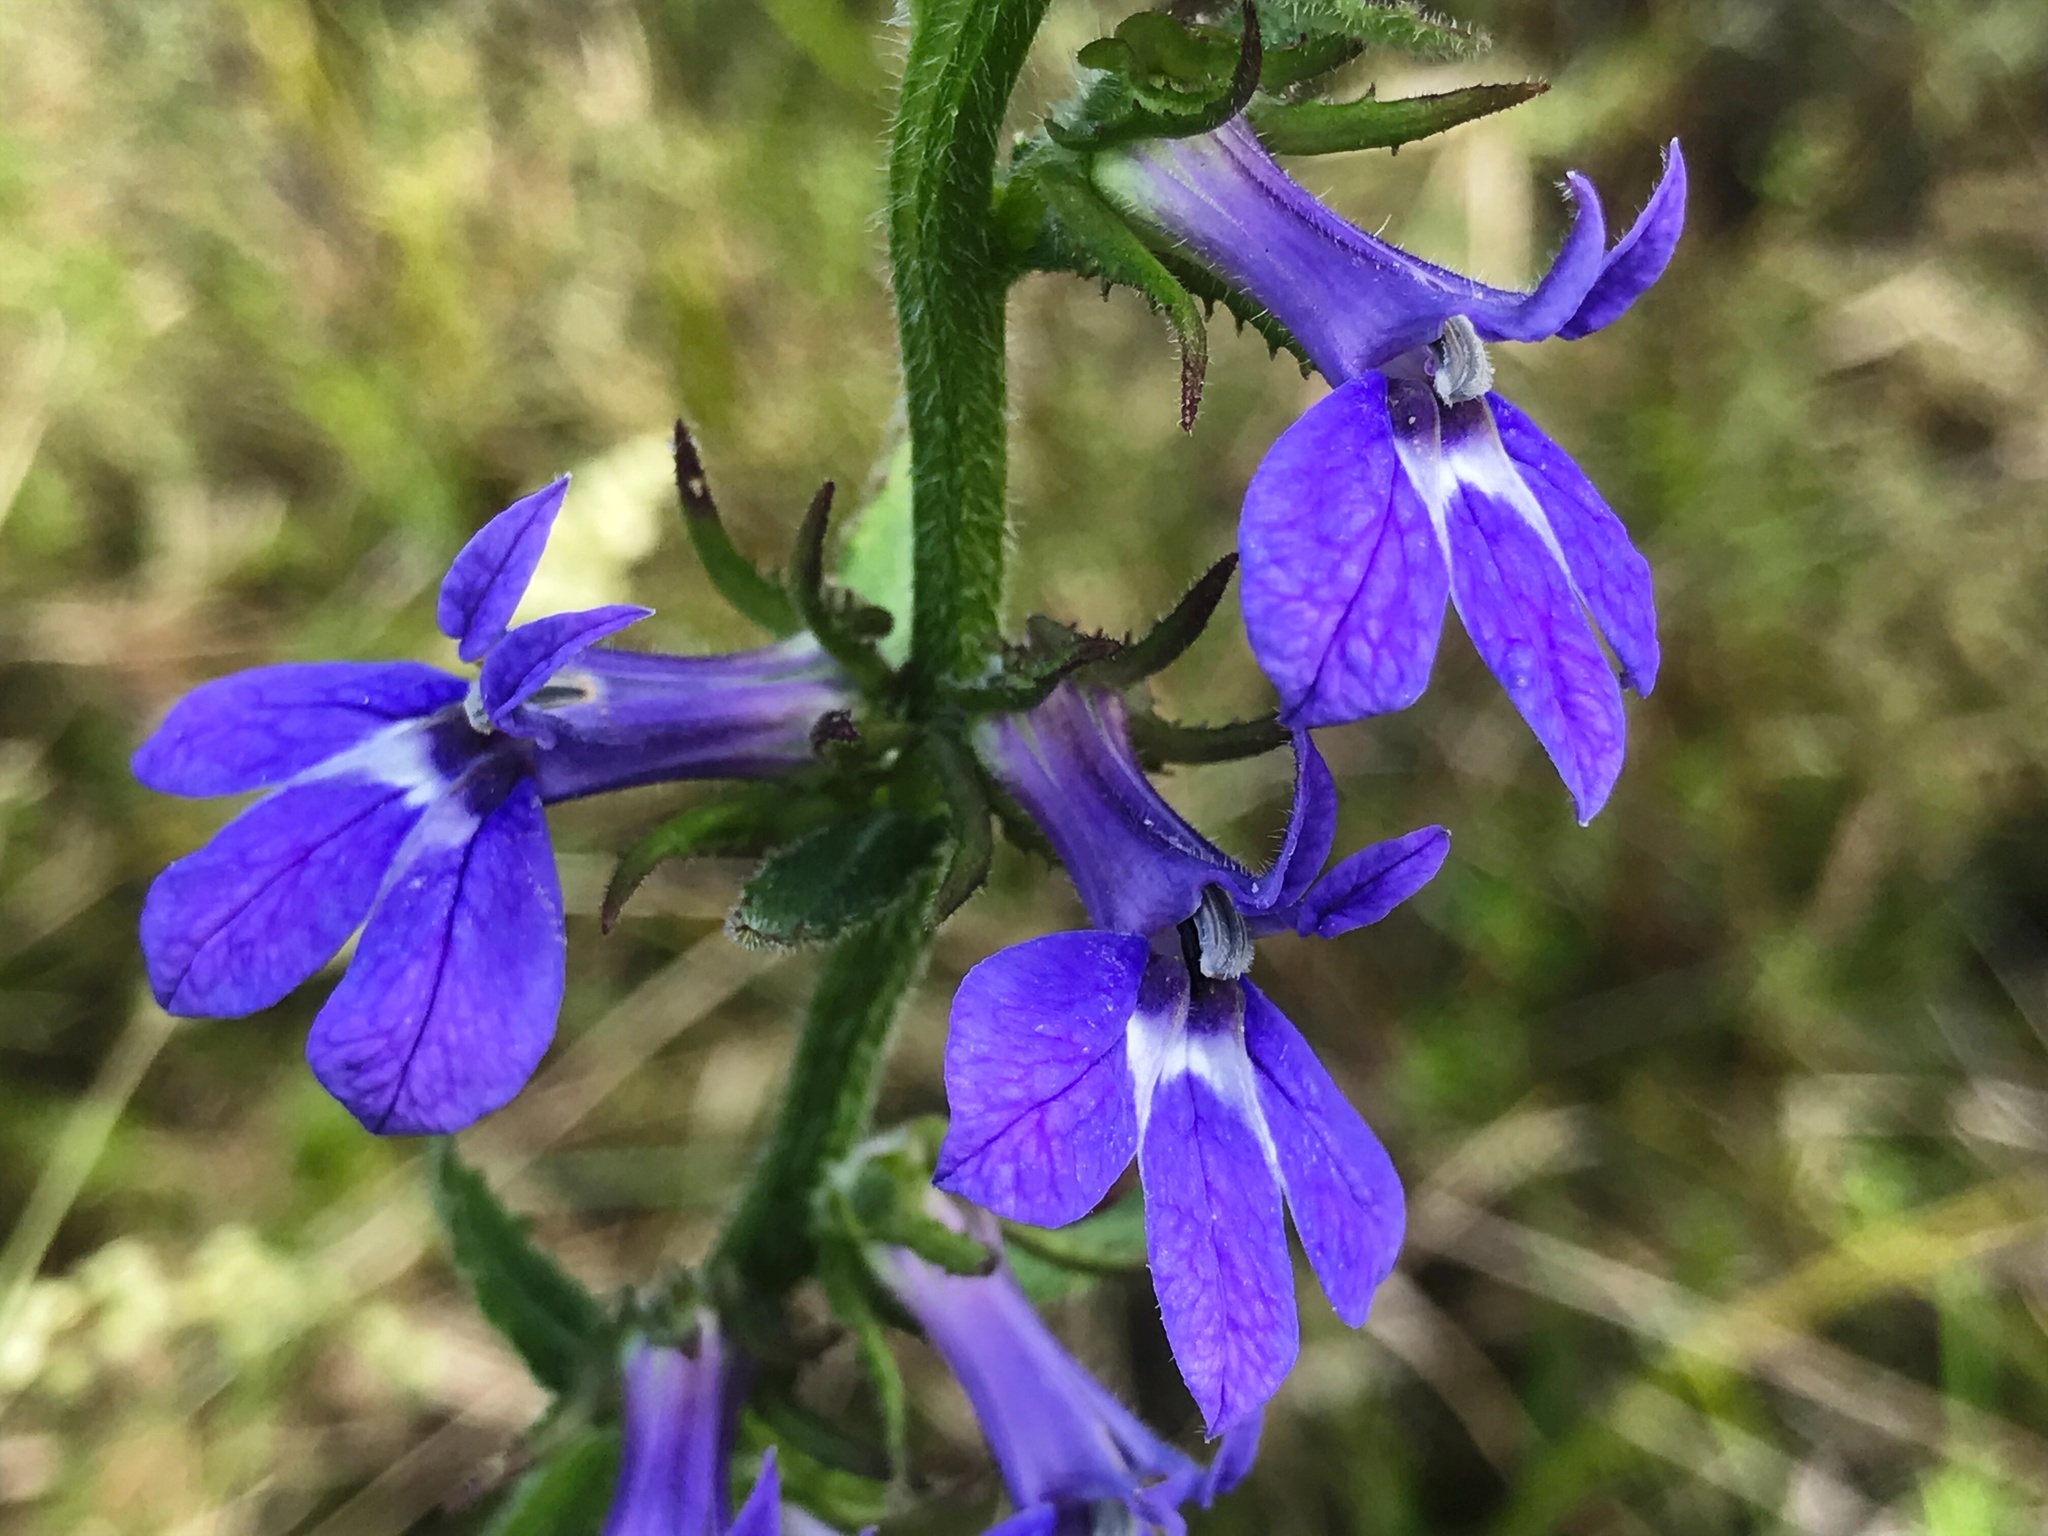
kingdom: Plantae
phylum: Tracheophyta
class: Magnoliopsida
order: Asterales
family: Campanulaceae
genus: Lobelia
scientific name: Lobelia puberula
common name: Purple dewdrop
